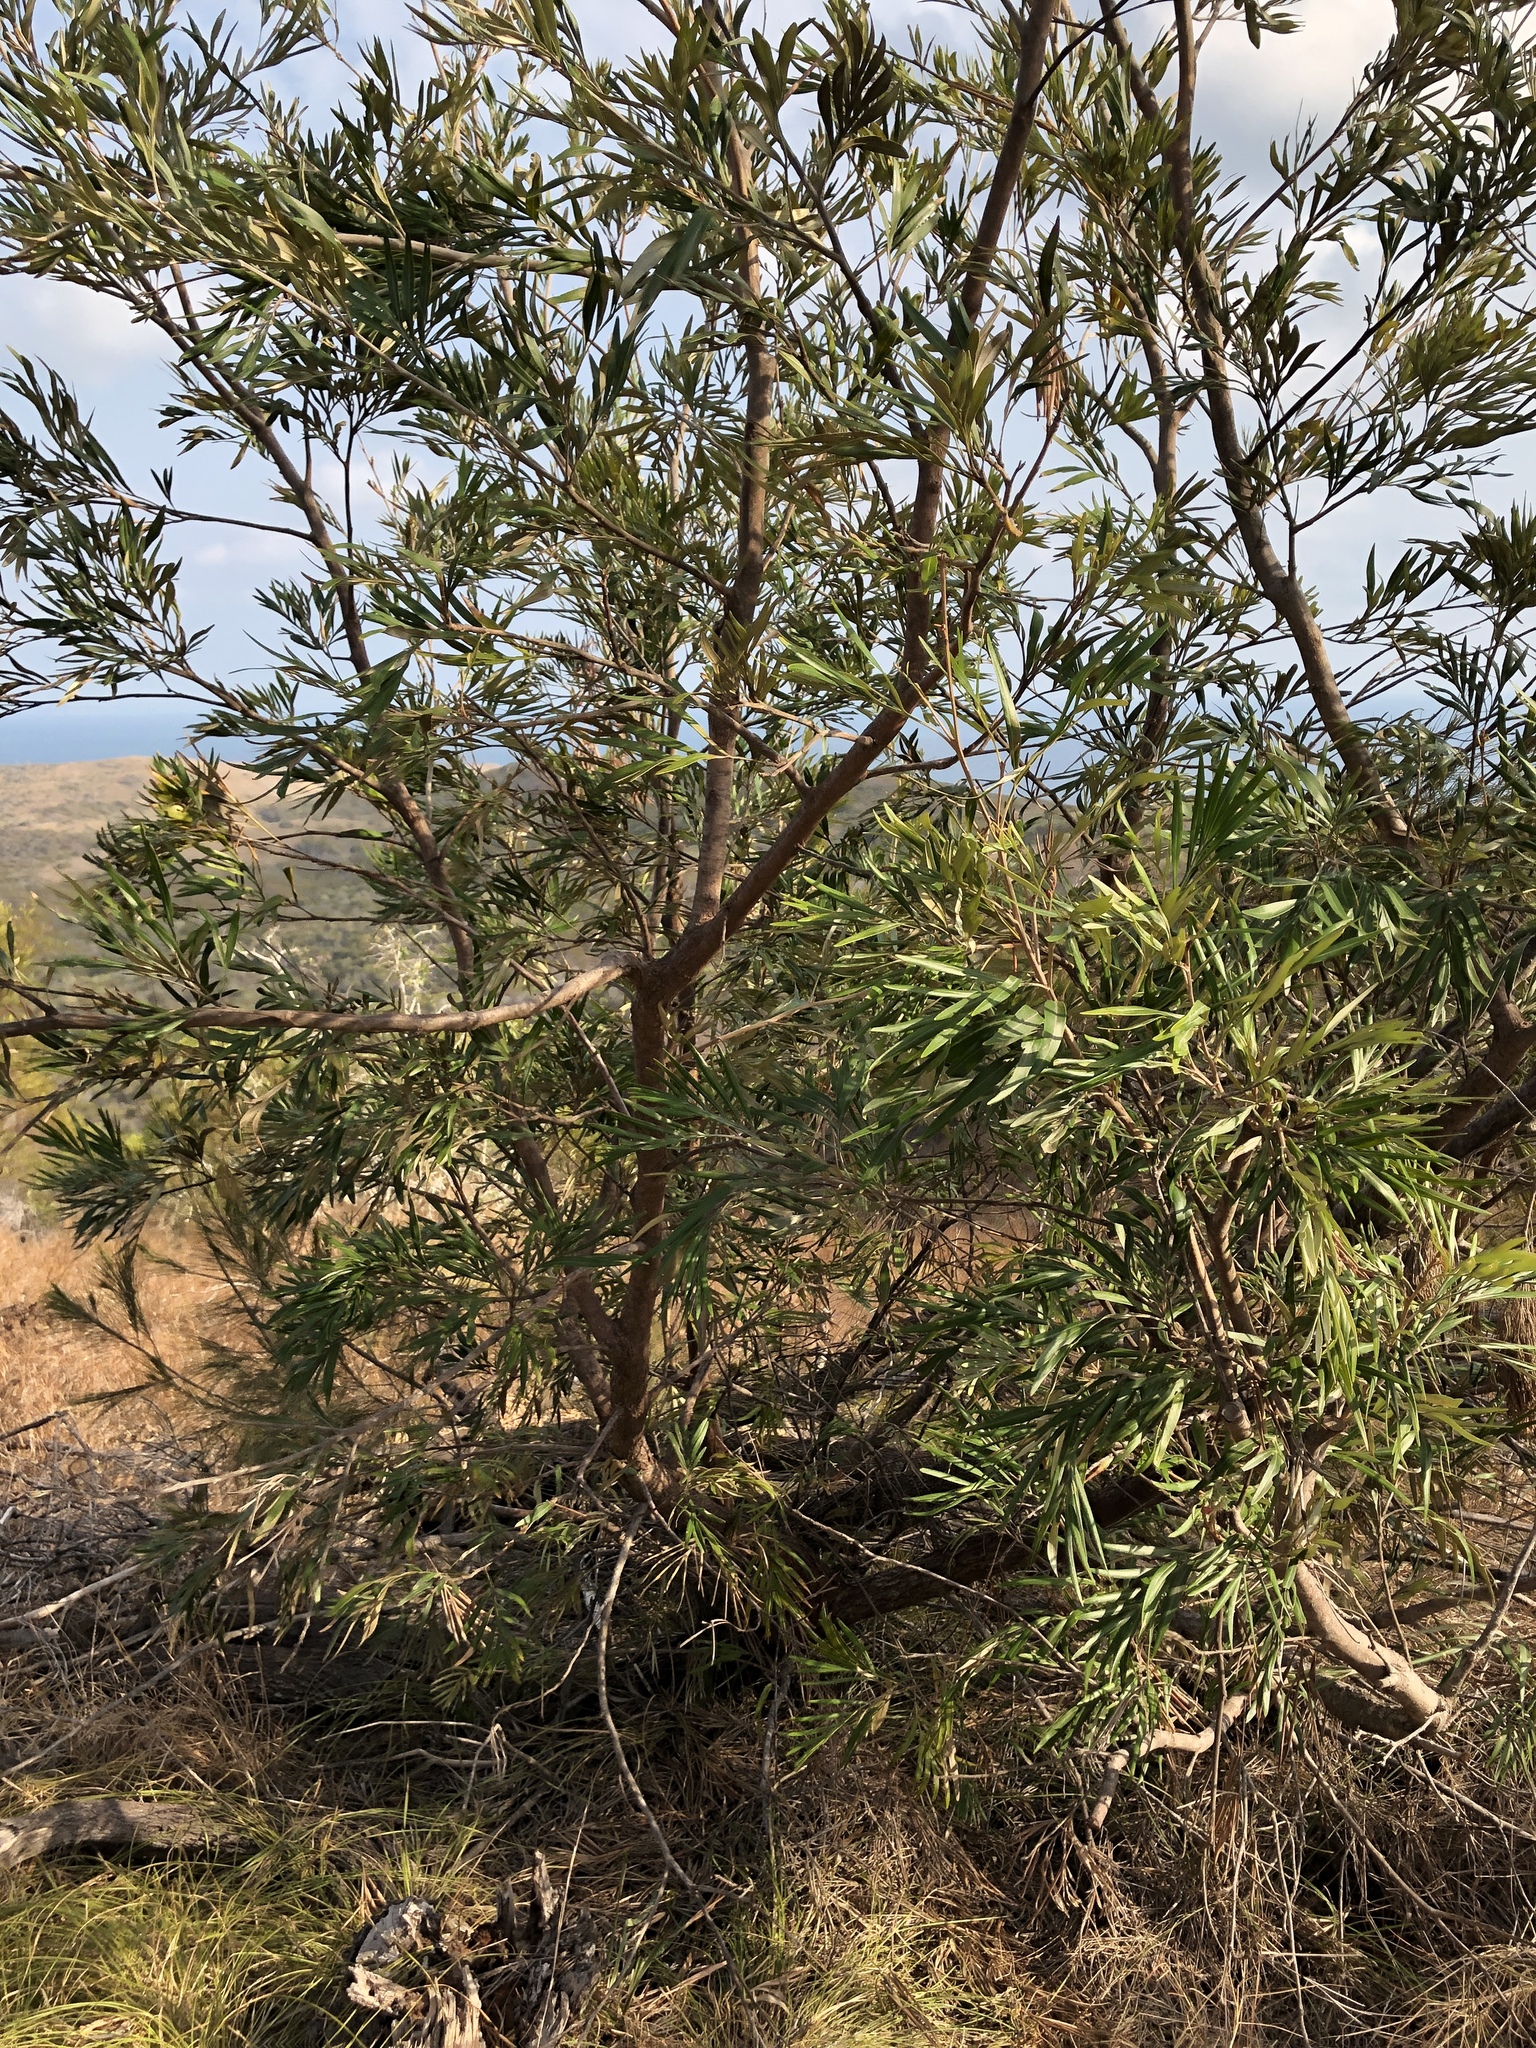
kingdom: Plantae
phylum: Tracheophyta
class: Magnoliopsida
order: Proteales
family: Proteaceae
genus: Grevillea
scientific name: Grevillea banksii
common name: Kahili flower
